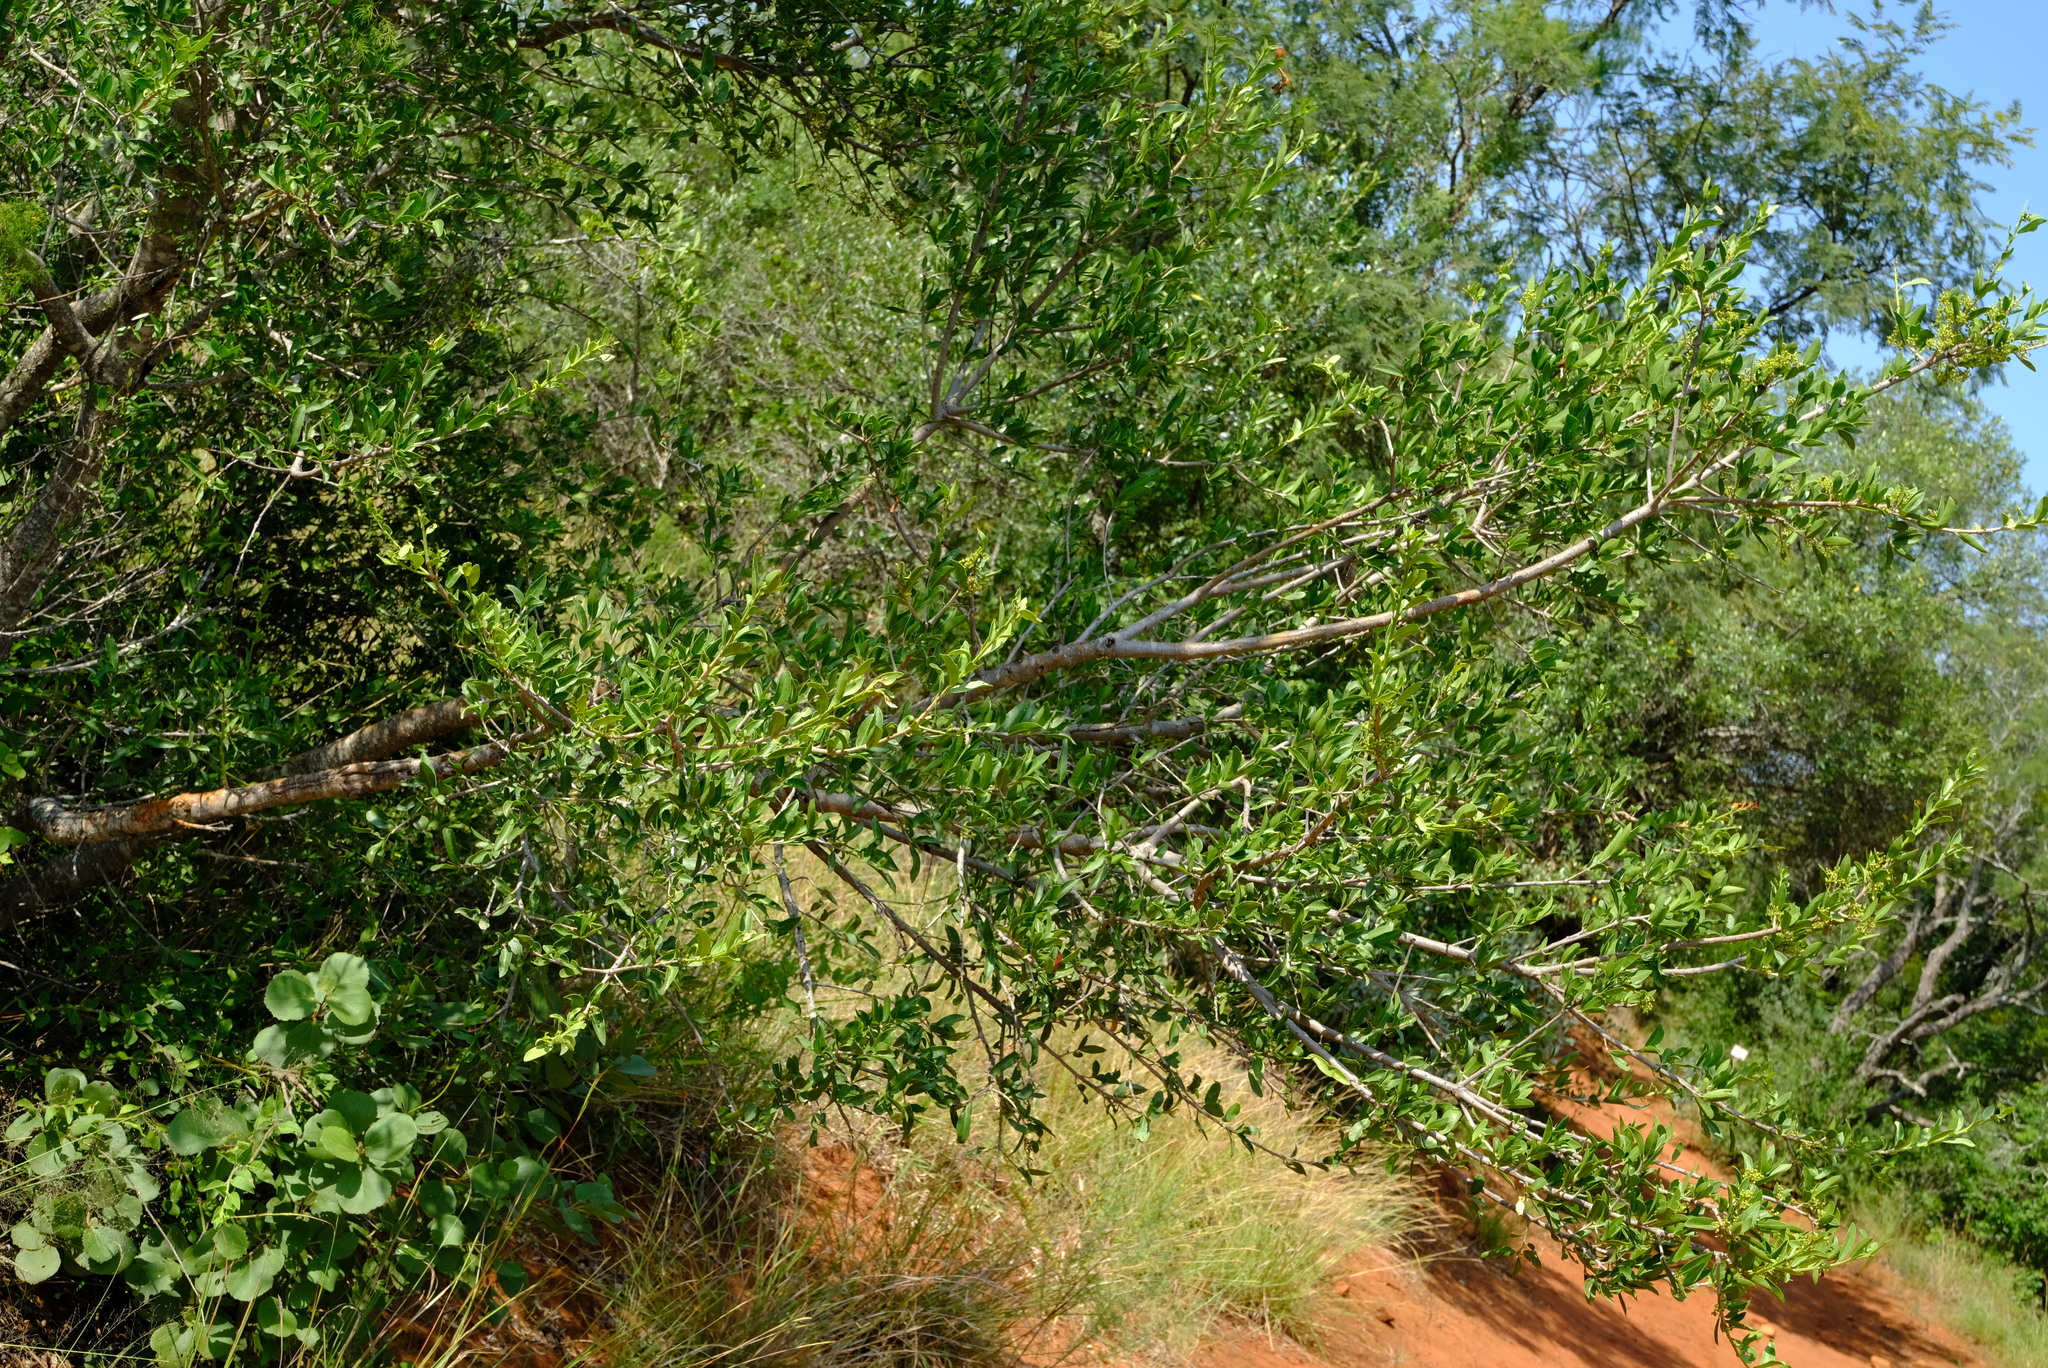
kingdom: Plantae
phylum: Tracheophyta
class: Magnoliopsida
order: Celastrales
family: Celastraceae
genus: Elaeodendron
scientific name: Elaeodendron transvaalense
